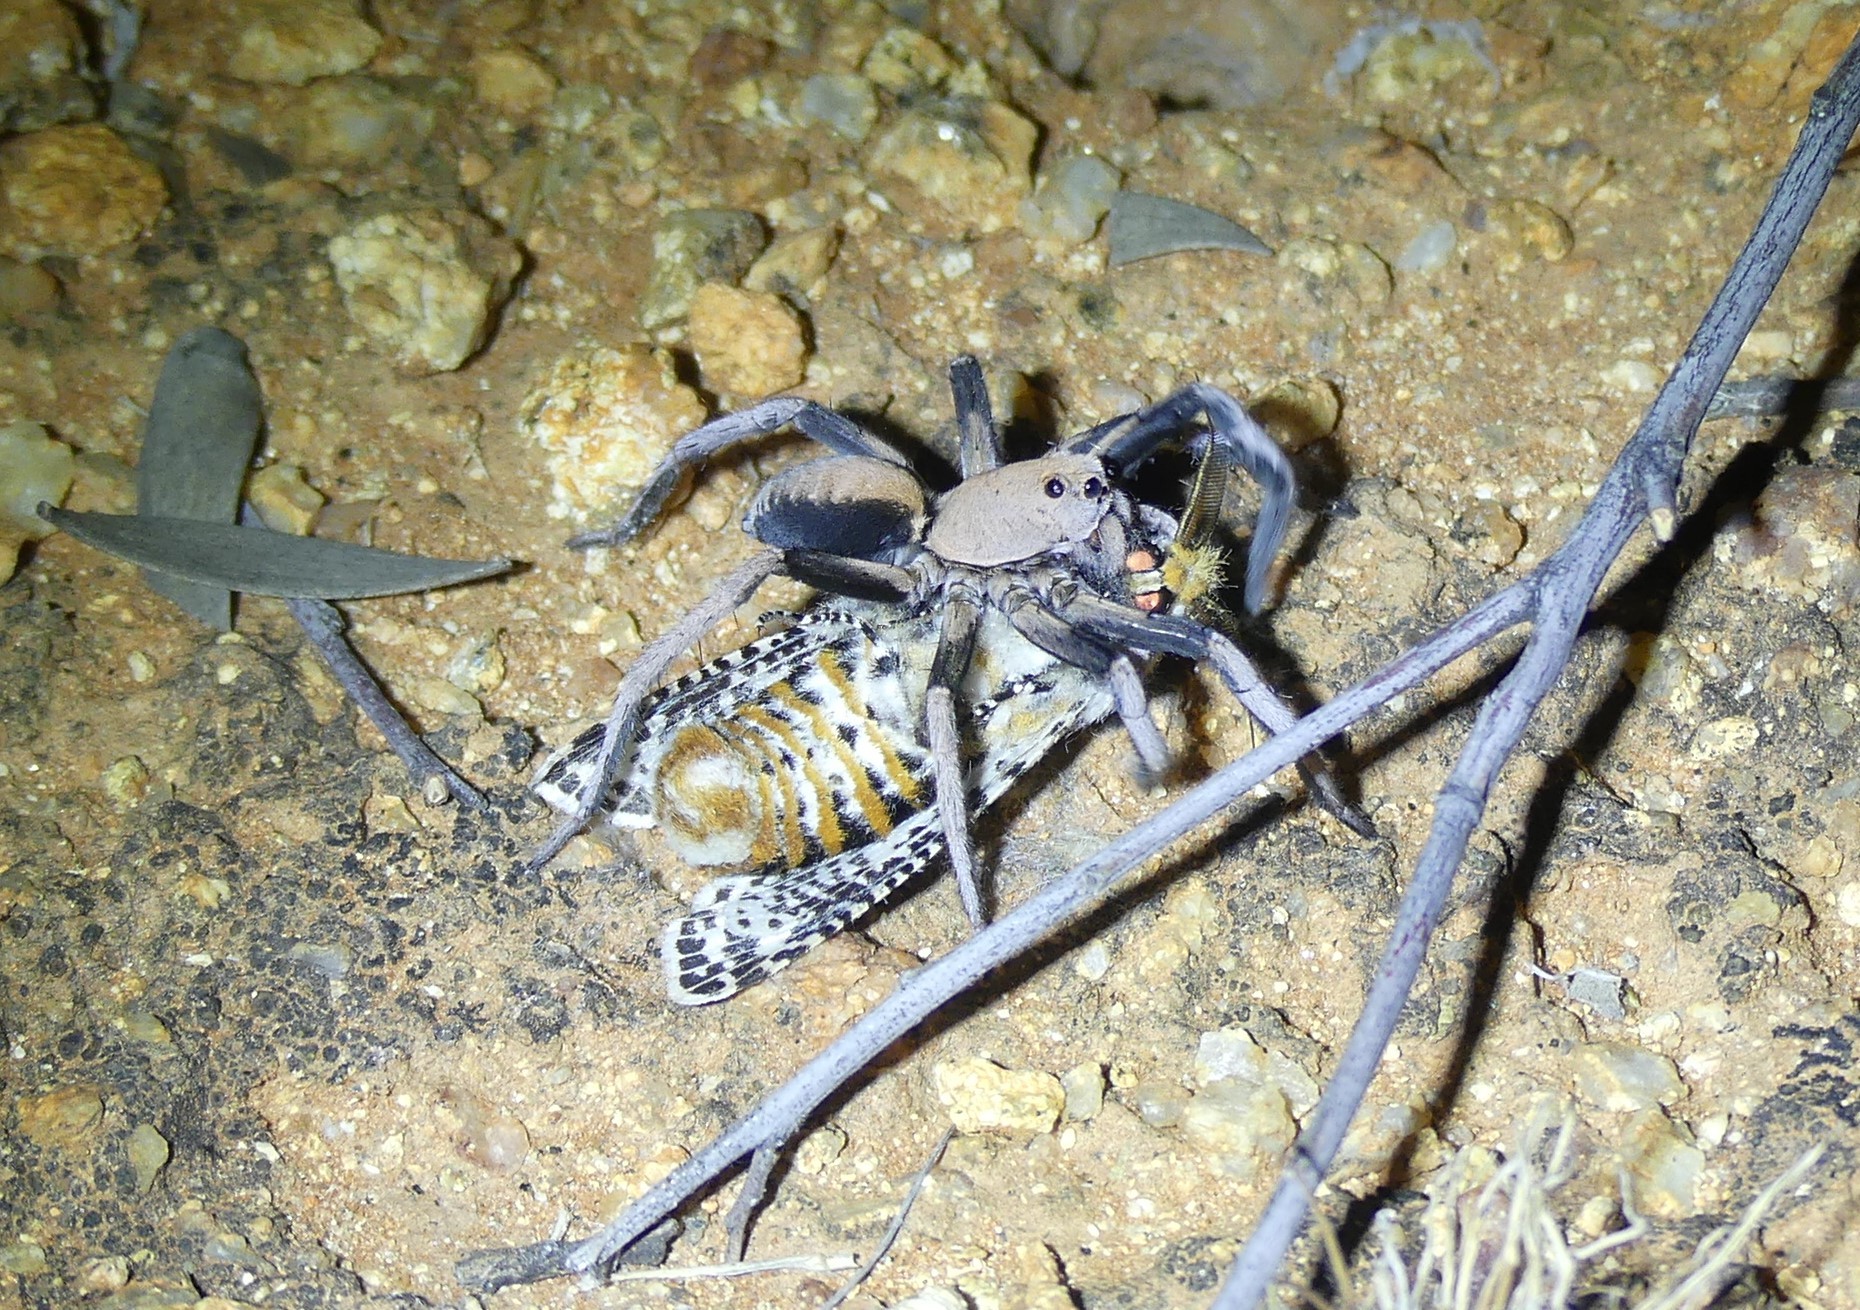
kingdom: Animalia
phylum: Arthropoda
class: Arachnida
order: Araneae
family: Lycosidae
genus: Hoggicosa
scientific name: Hoggicosa bicolor
